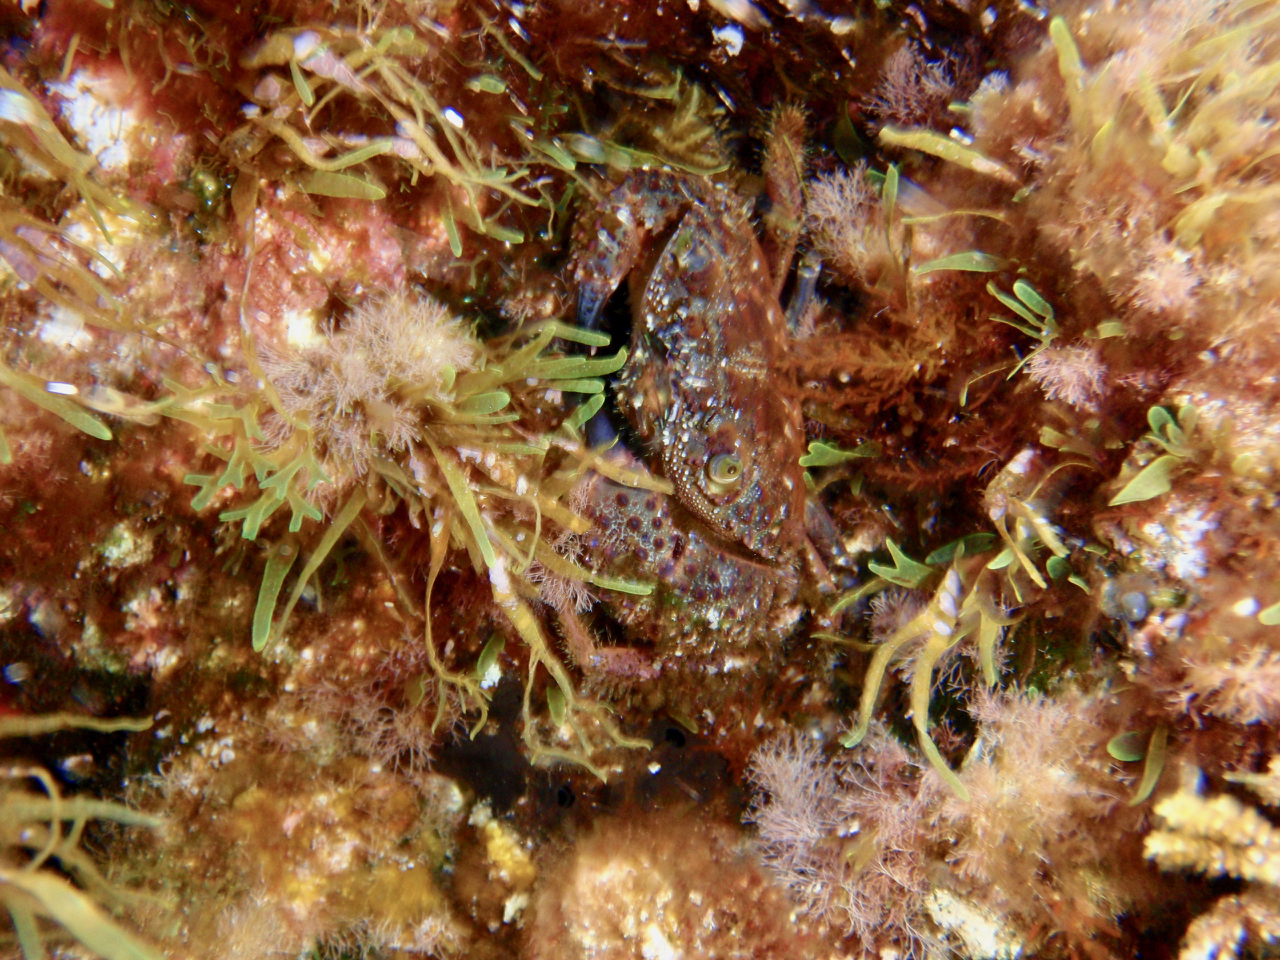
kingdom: Animalia
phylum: Arthropoda
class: Malacostraca
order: Decapoda
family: Eriphiidae
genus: Eriphia
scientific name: Eriphia verrucosa
